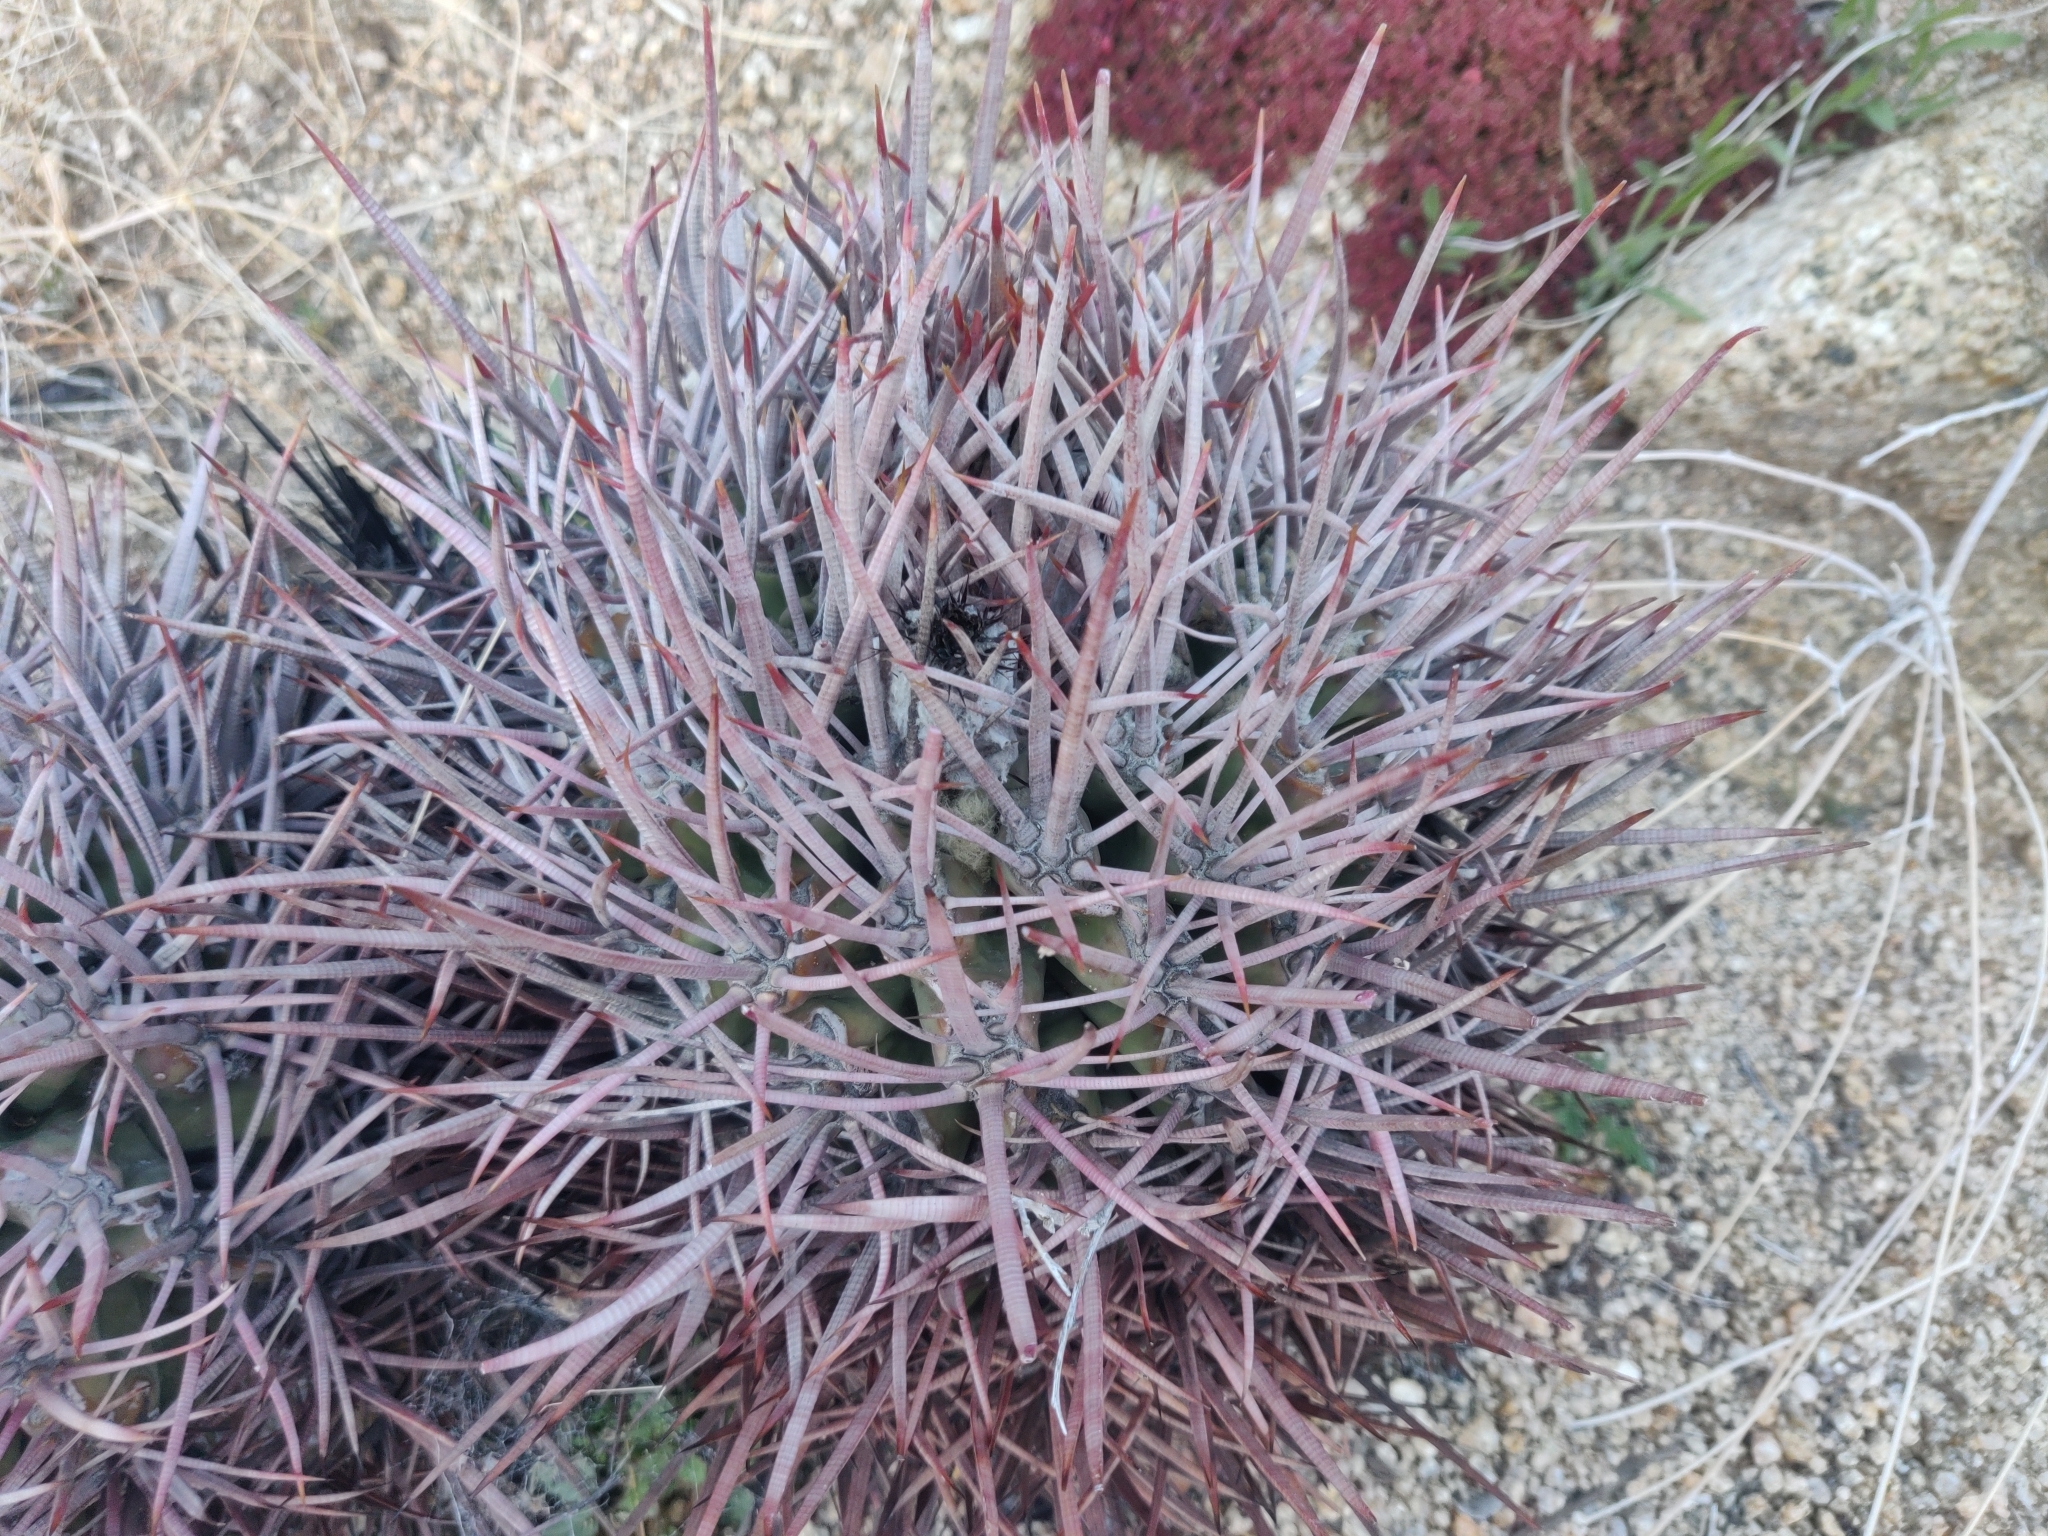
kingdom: Plantae
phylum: Tracheophyta
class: Magnoliopsida
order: Caryophyllales
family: Cactaceae
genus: Echinocactus
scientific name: Echinocactus polycephalus
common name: Cottontop cactus
